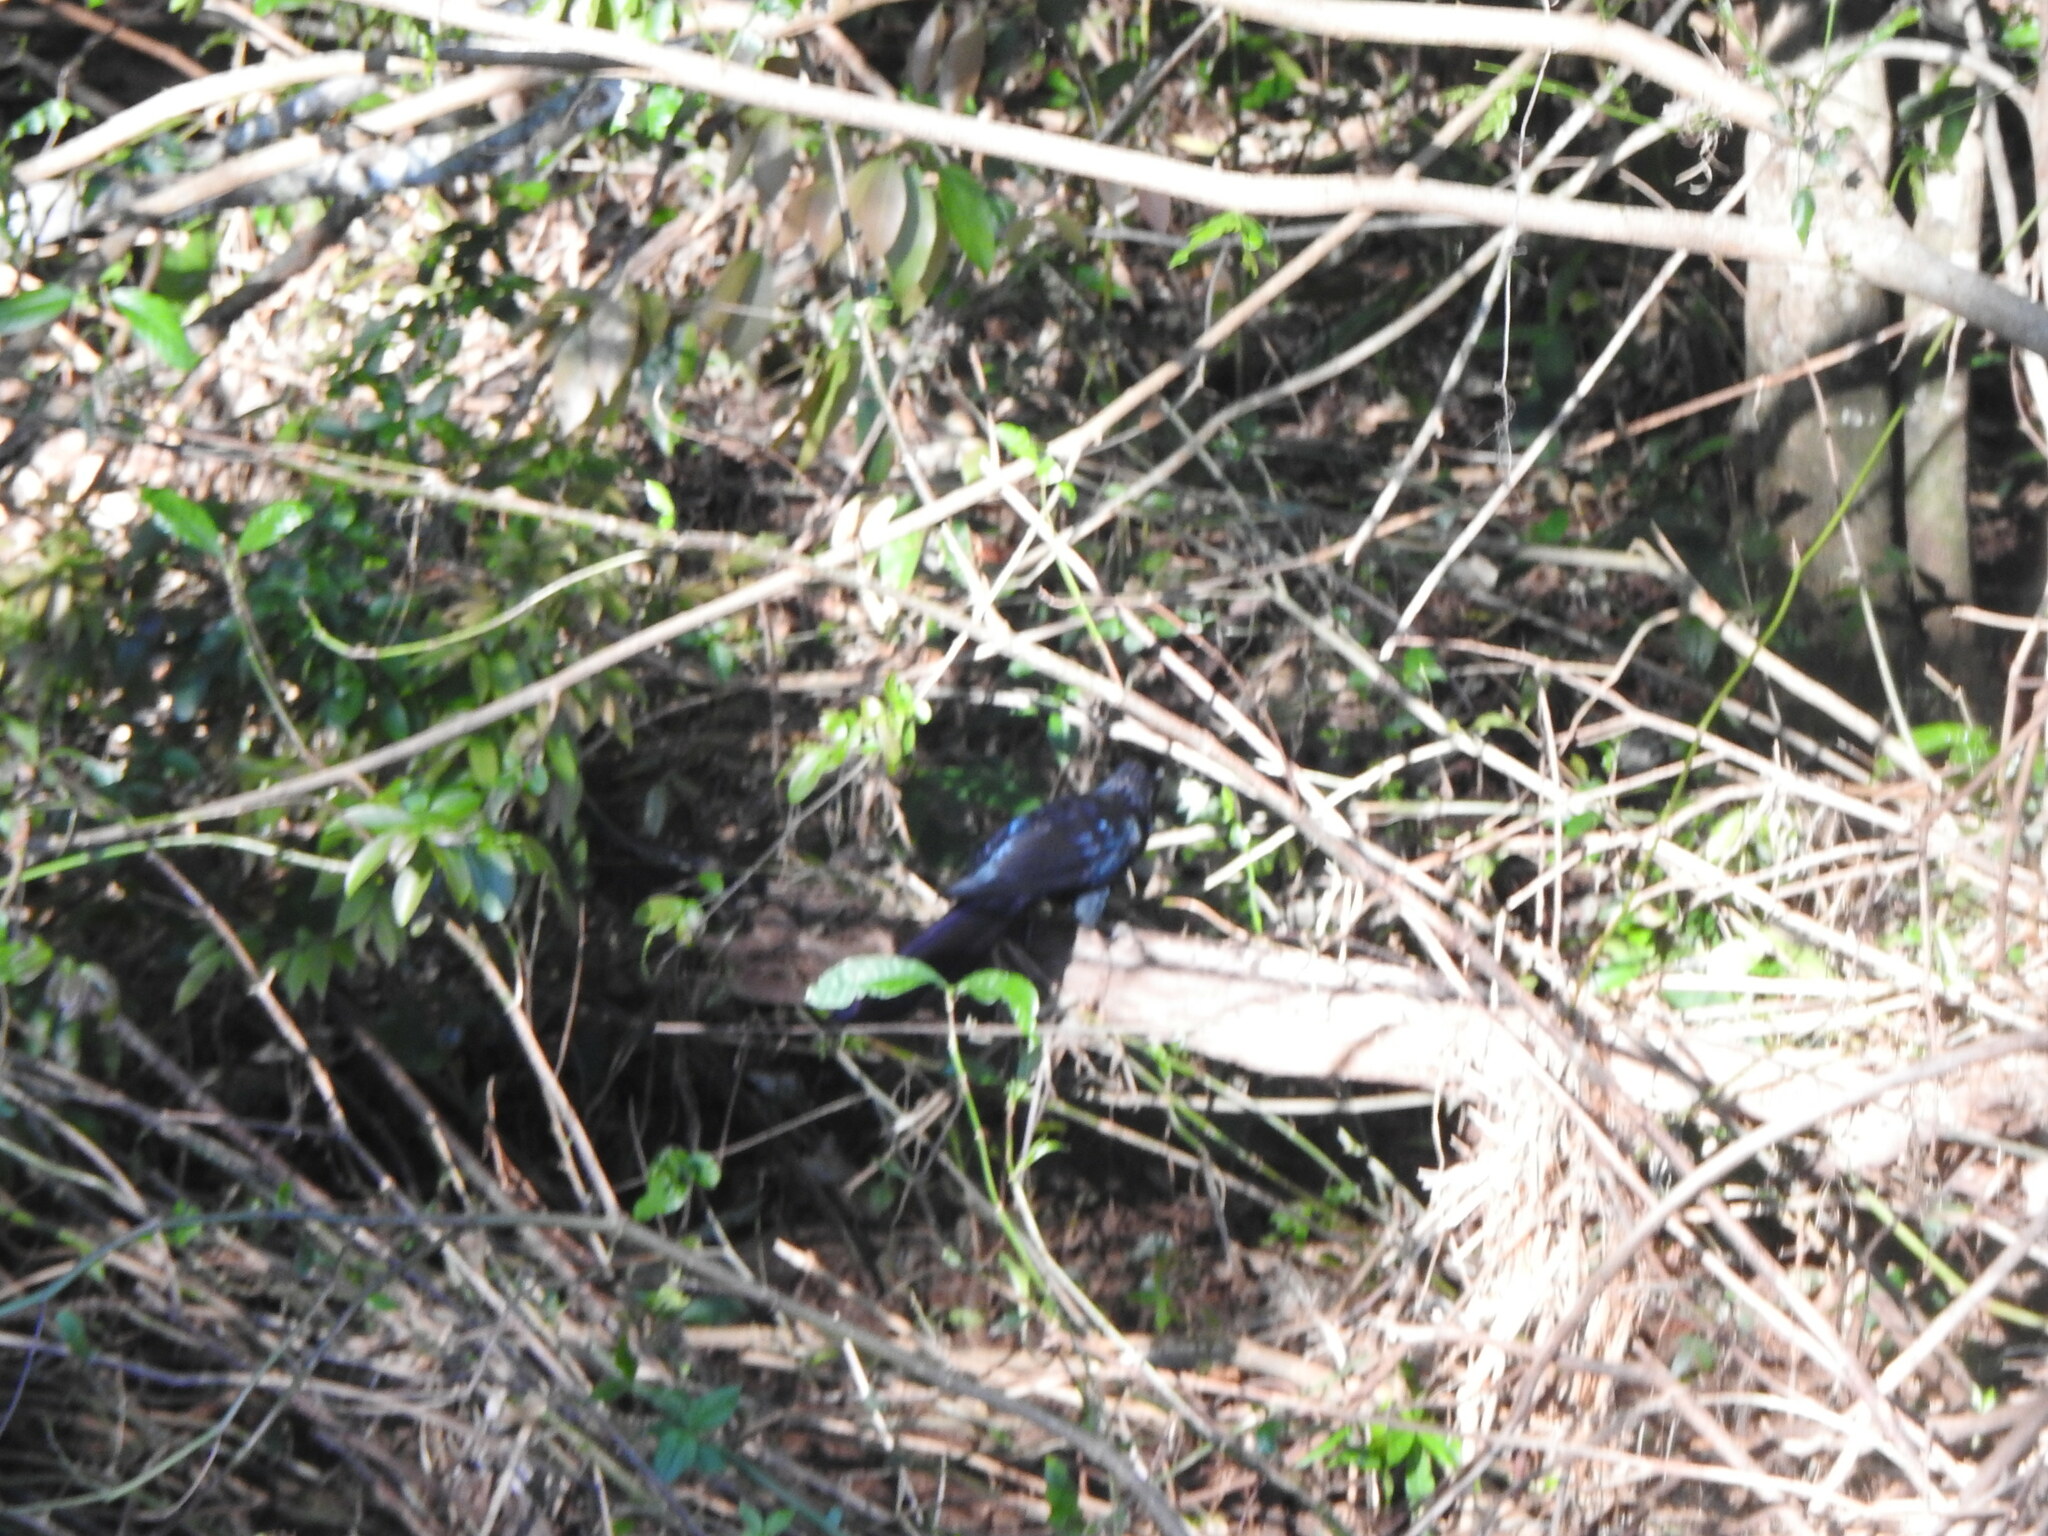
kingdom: Animalia
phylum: Chordata
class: Aves
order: Cuculiformes
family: Cuculidae
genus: Crotophaga
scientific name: Crotophaga major
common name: Greater ani
